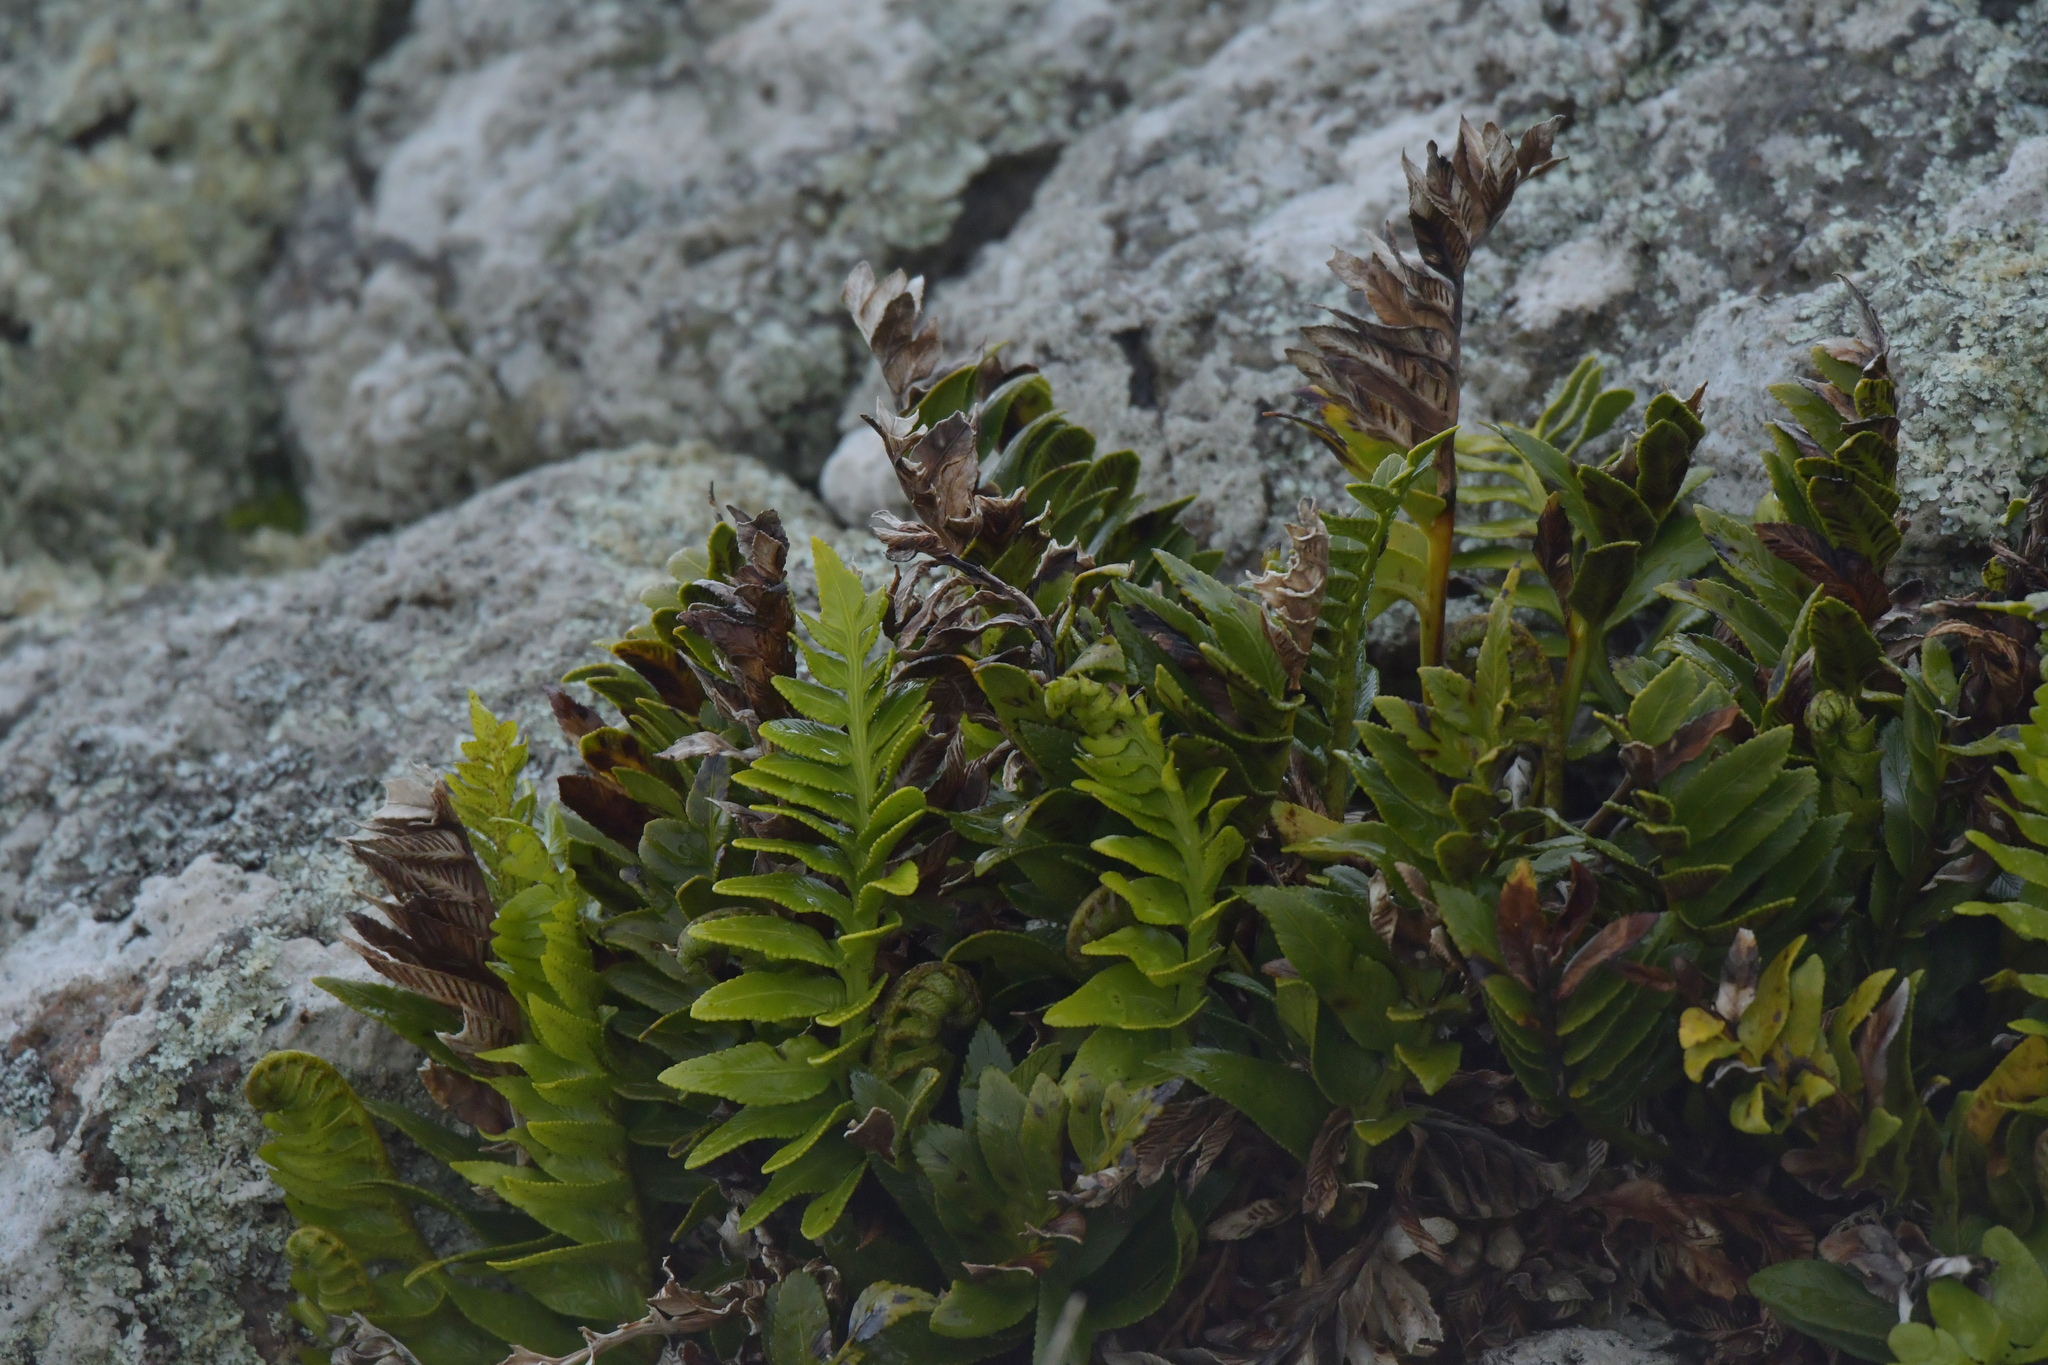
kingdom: Plantae
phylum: Tracheophyta
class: Polypodiopsida
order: Polypodiales
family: Aspleniaceae
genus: Asplenium
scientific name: Asplenium obtusatum
